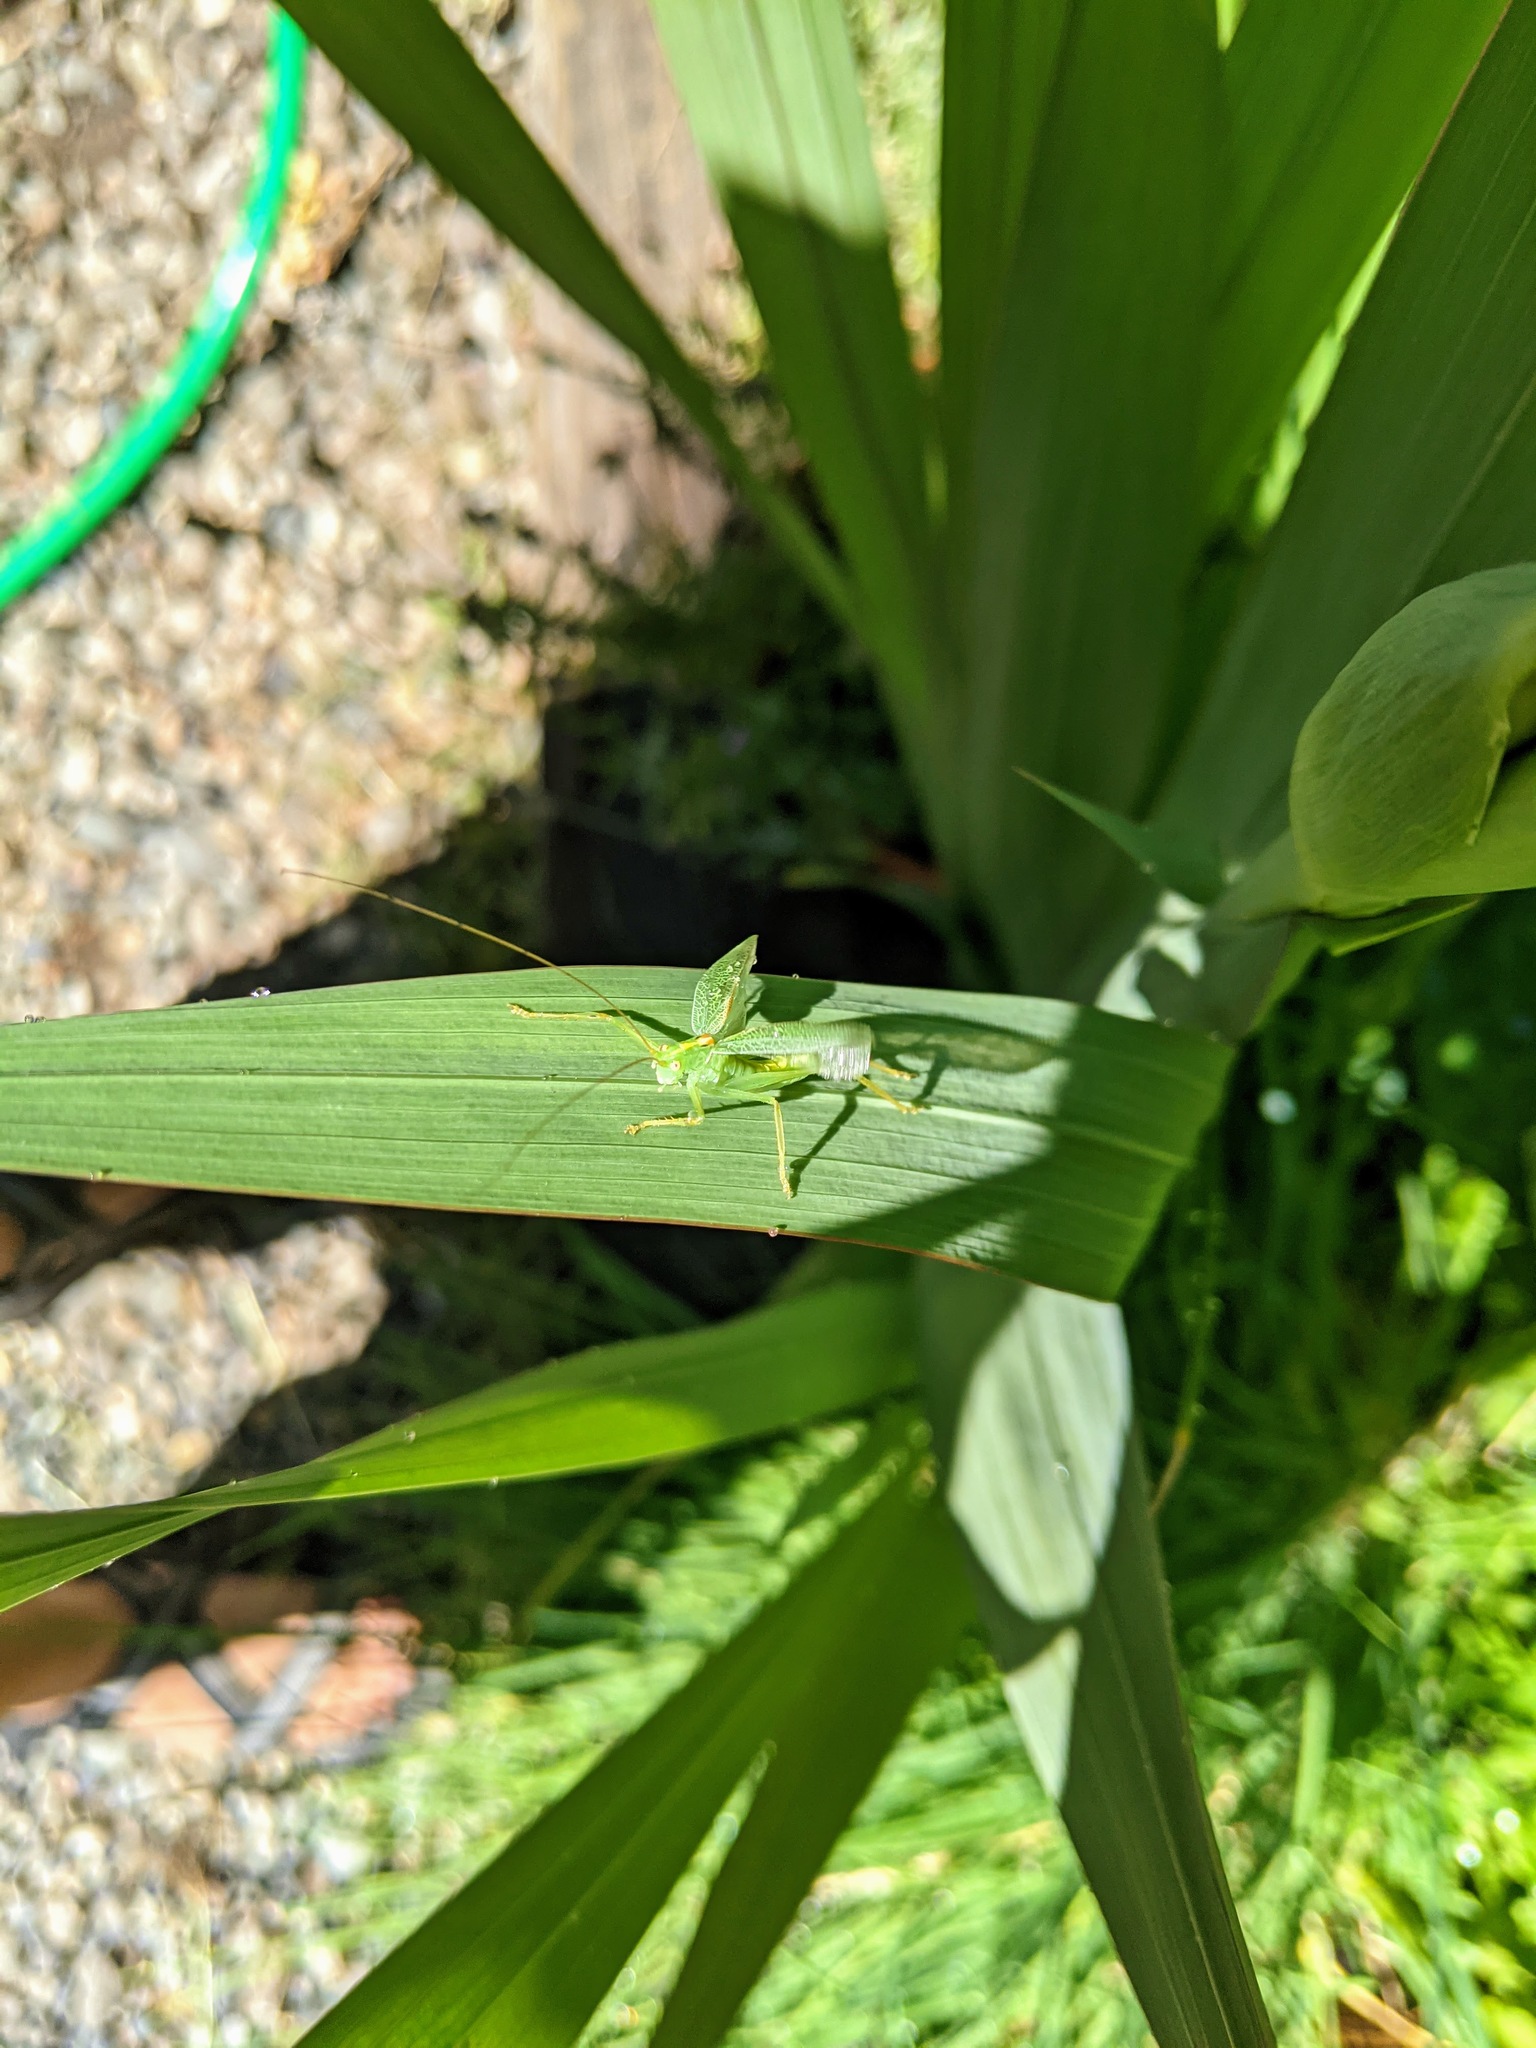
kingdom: Animalia
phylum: Arthropoda
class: Insecta
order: Orthoptera
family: Tettigoniidae
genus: Meconema
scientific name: Meconema thalassinum
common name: Oak bush-cricket
